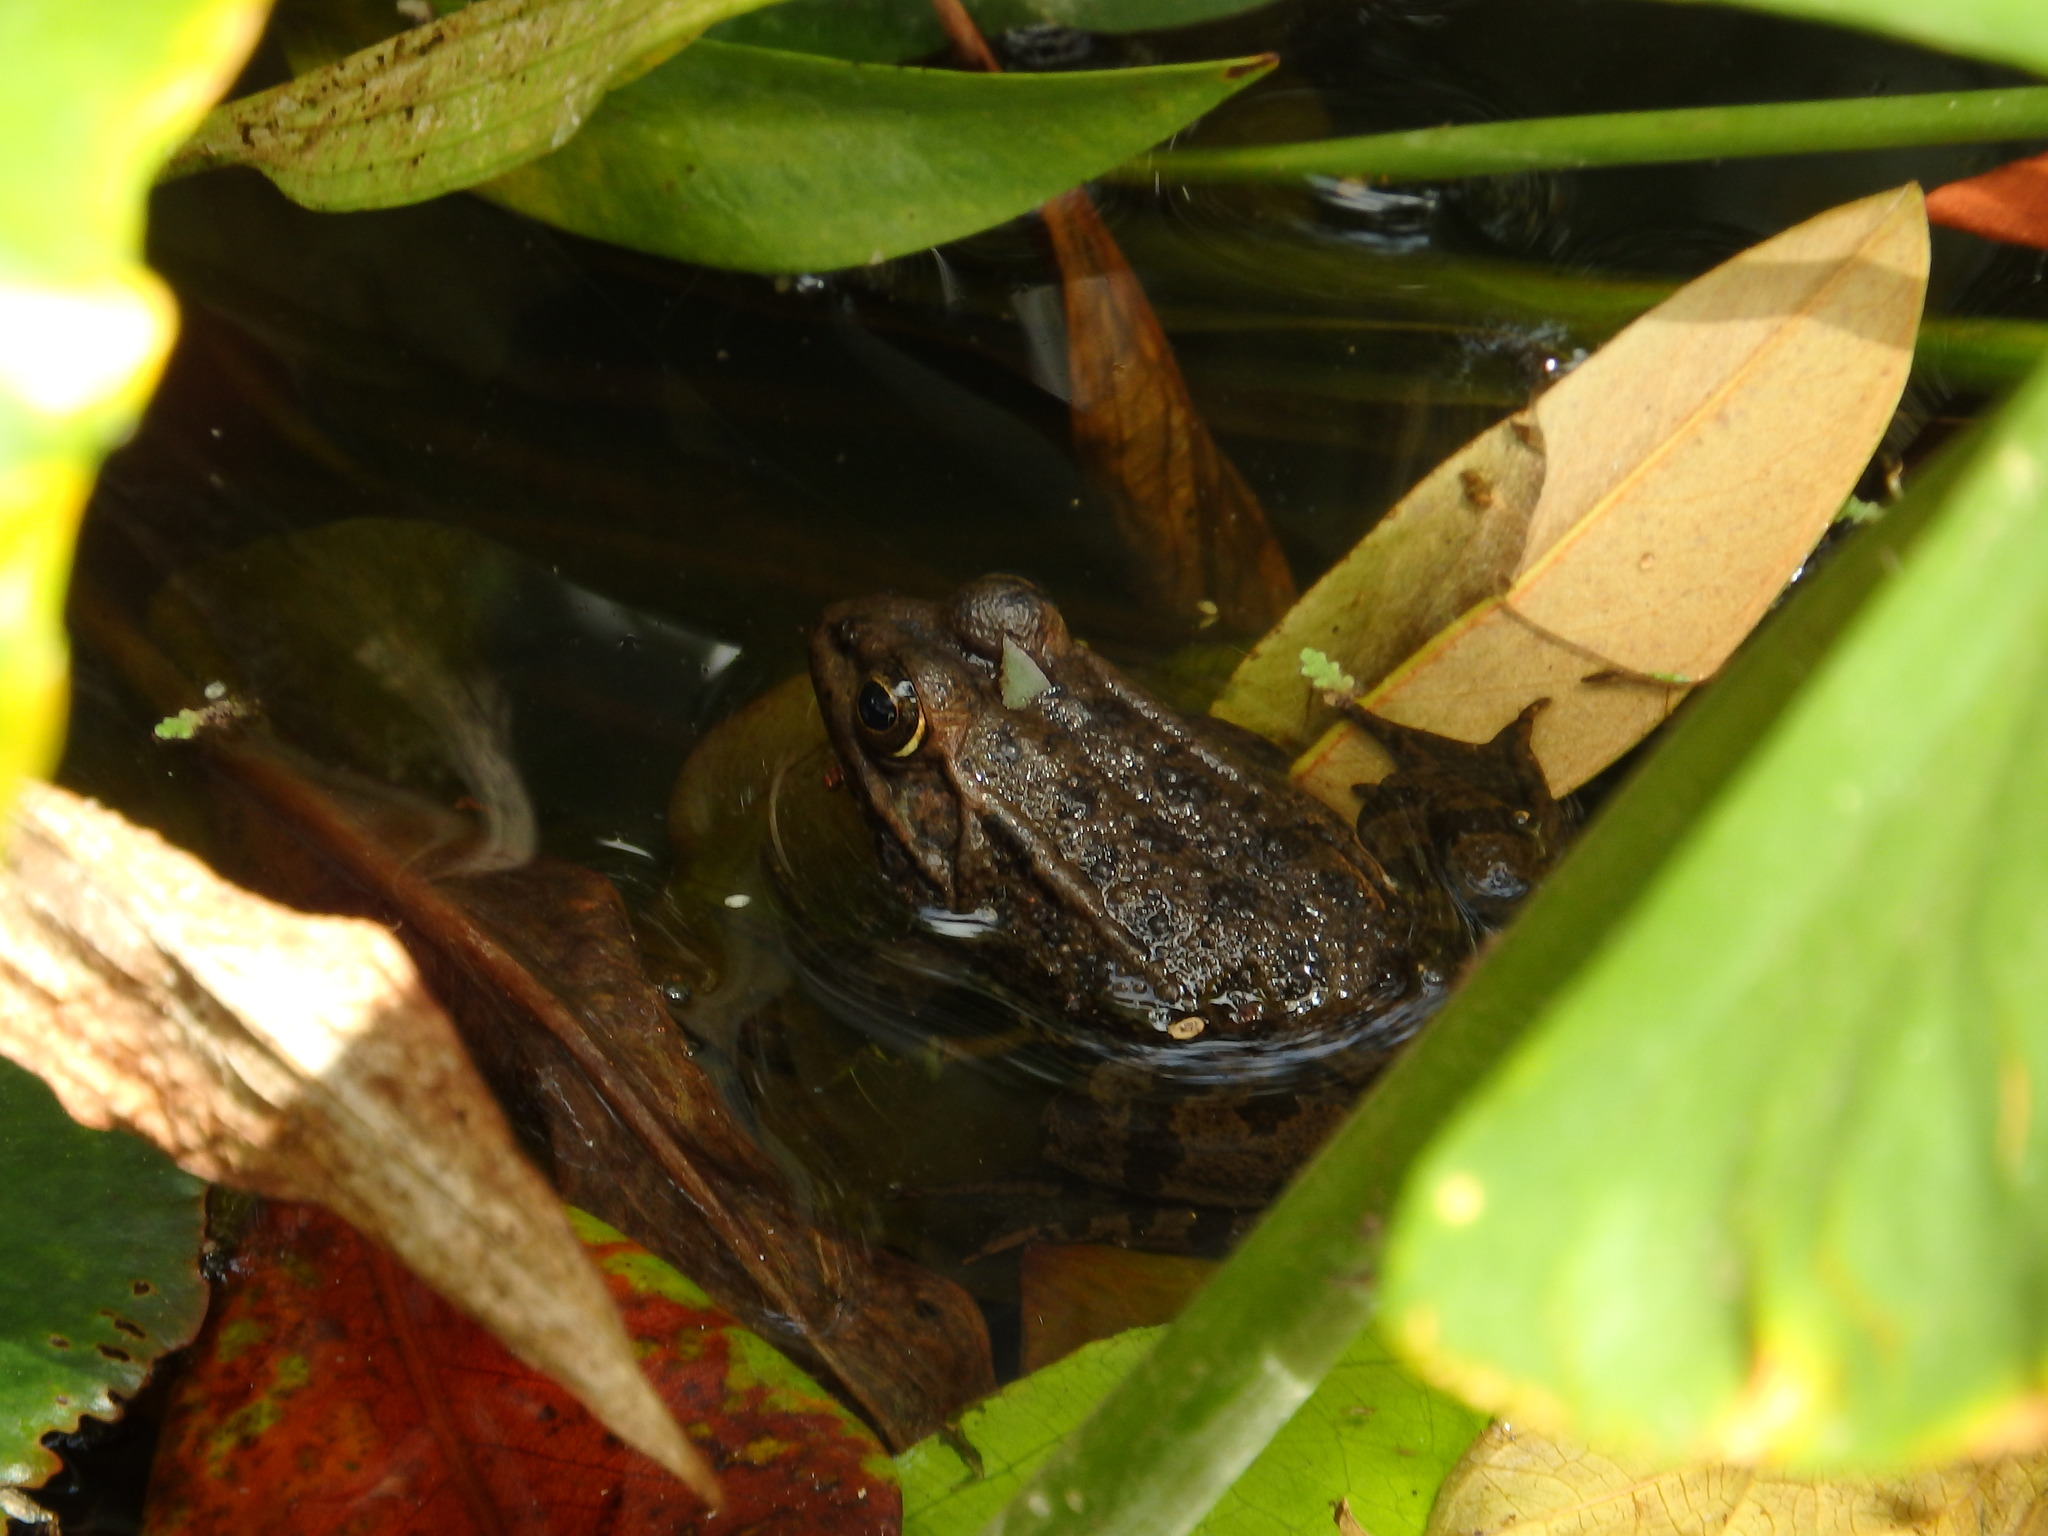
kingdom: Animalia
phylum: Chordata
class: Amphibia
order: Anura
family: Ranidae
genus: Pelophylax
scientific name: Pelophylax perezi
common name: Perez's frog
